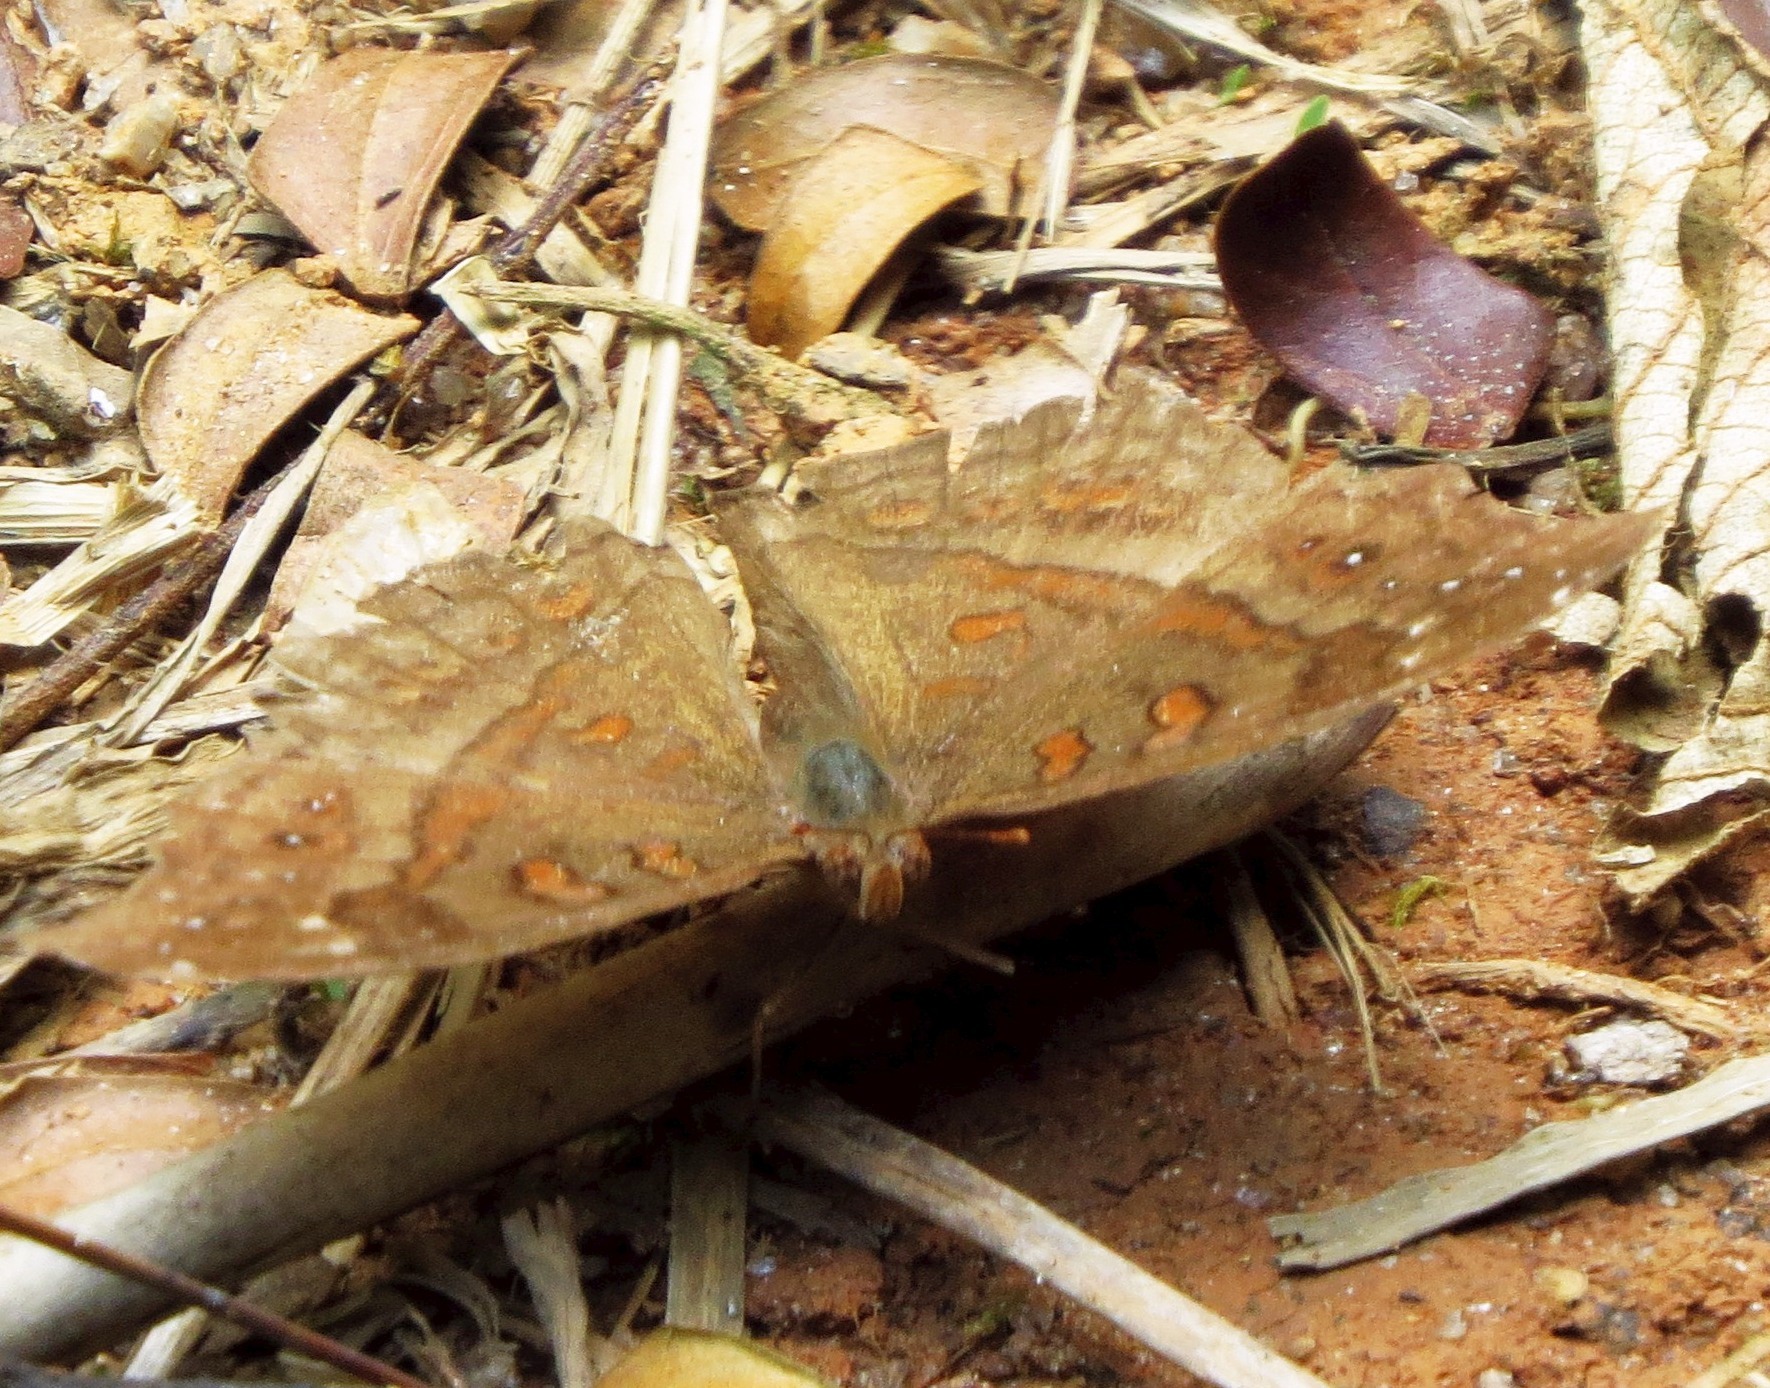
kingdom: Animalia
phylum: Arthropoda
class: Insecta
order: Lepidoptera
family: Nymphalidae
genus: Junonia
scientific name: Junonia goudotii
